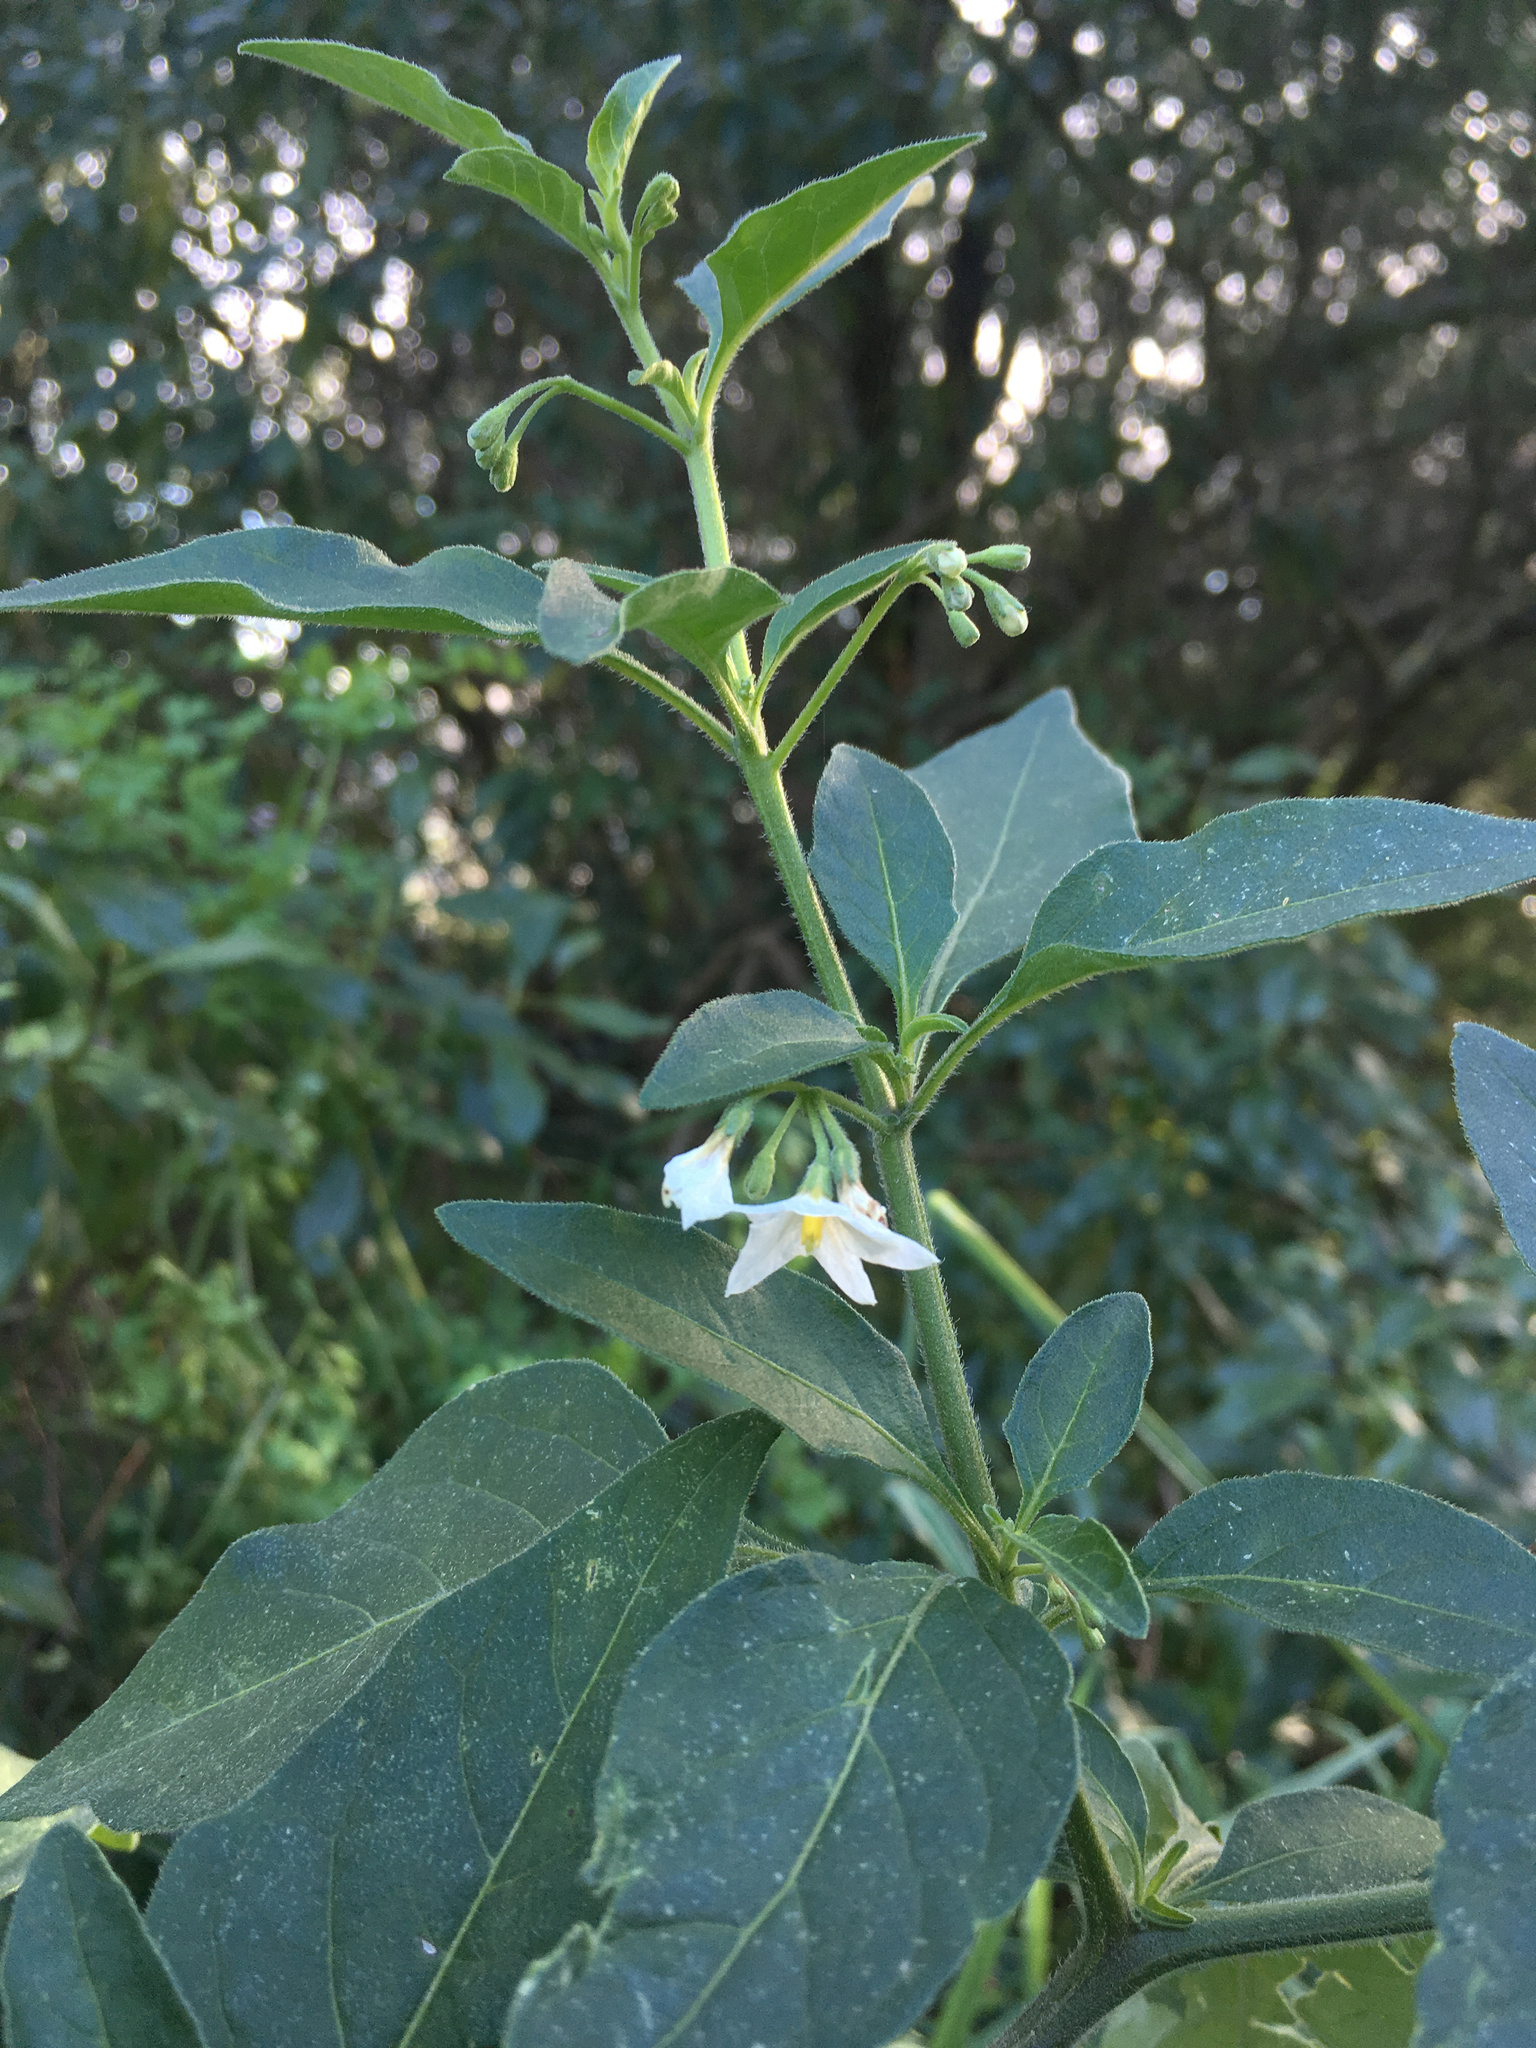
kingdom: Plantae
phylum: Tracheophyta
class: Magnoliopsida
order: Solanales
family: Solanaceae
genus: Solanum
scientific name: Solanum chenopodioides
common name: Tall nightshade
